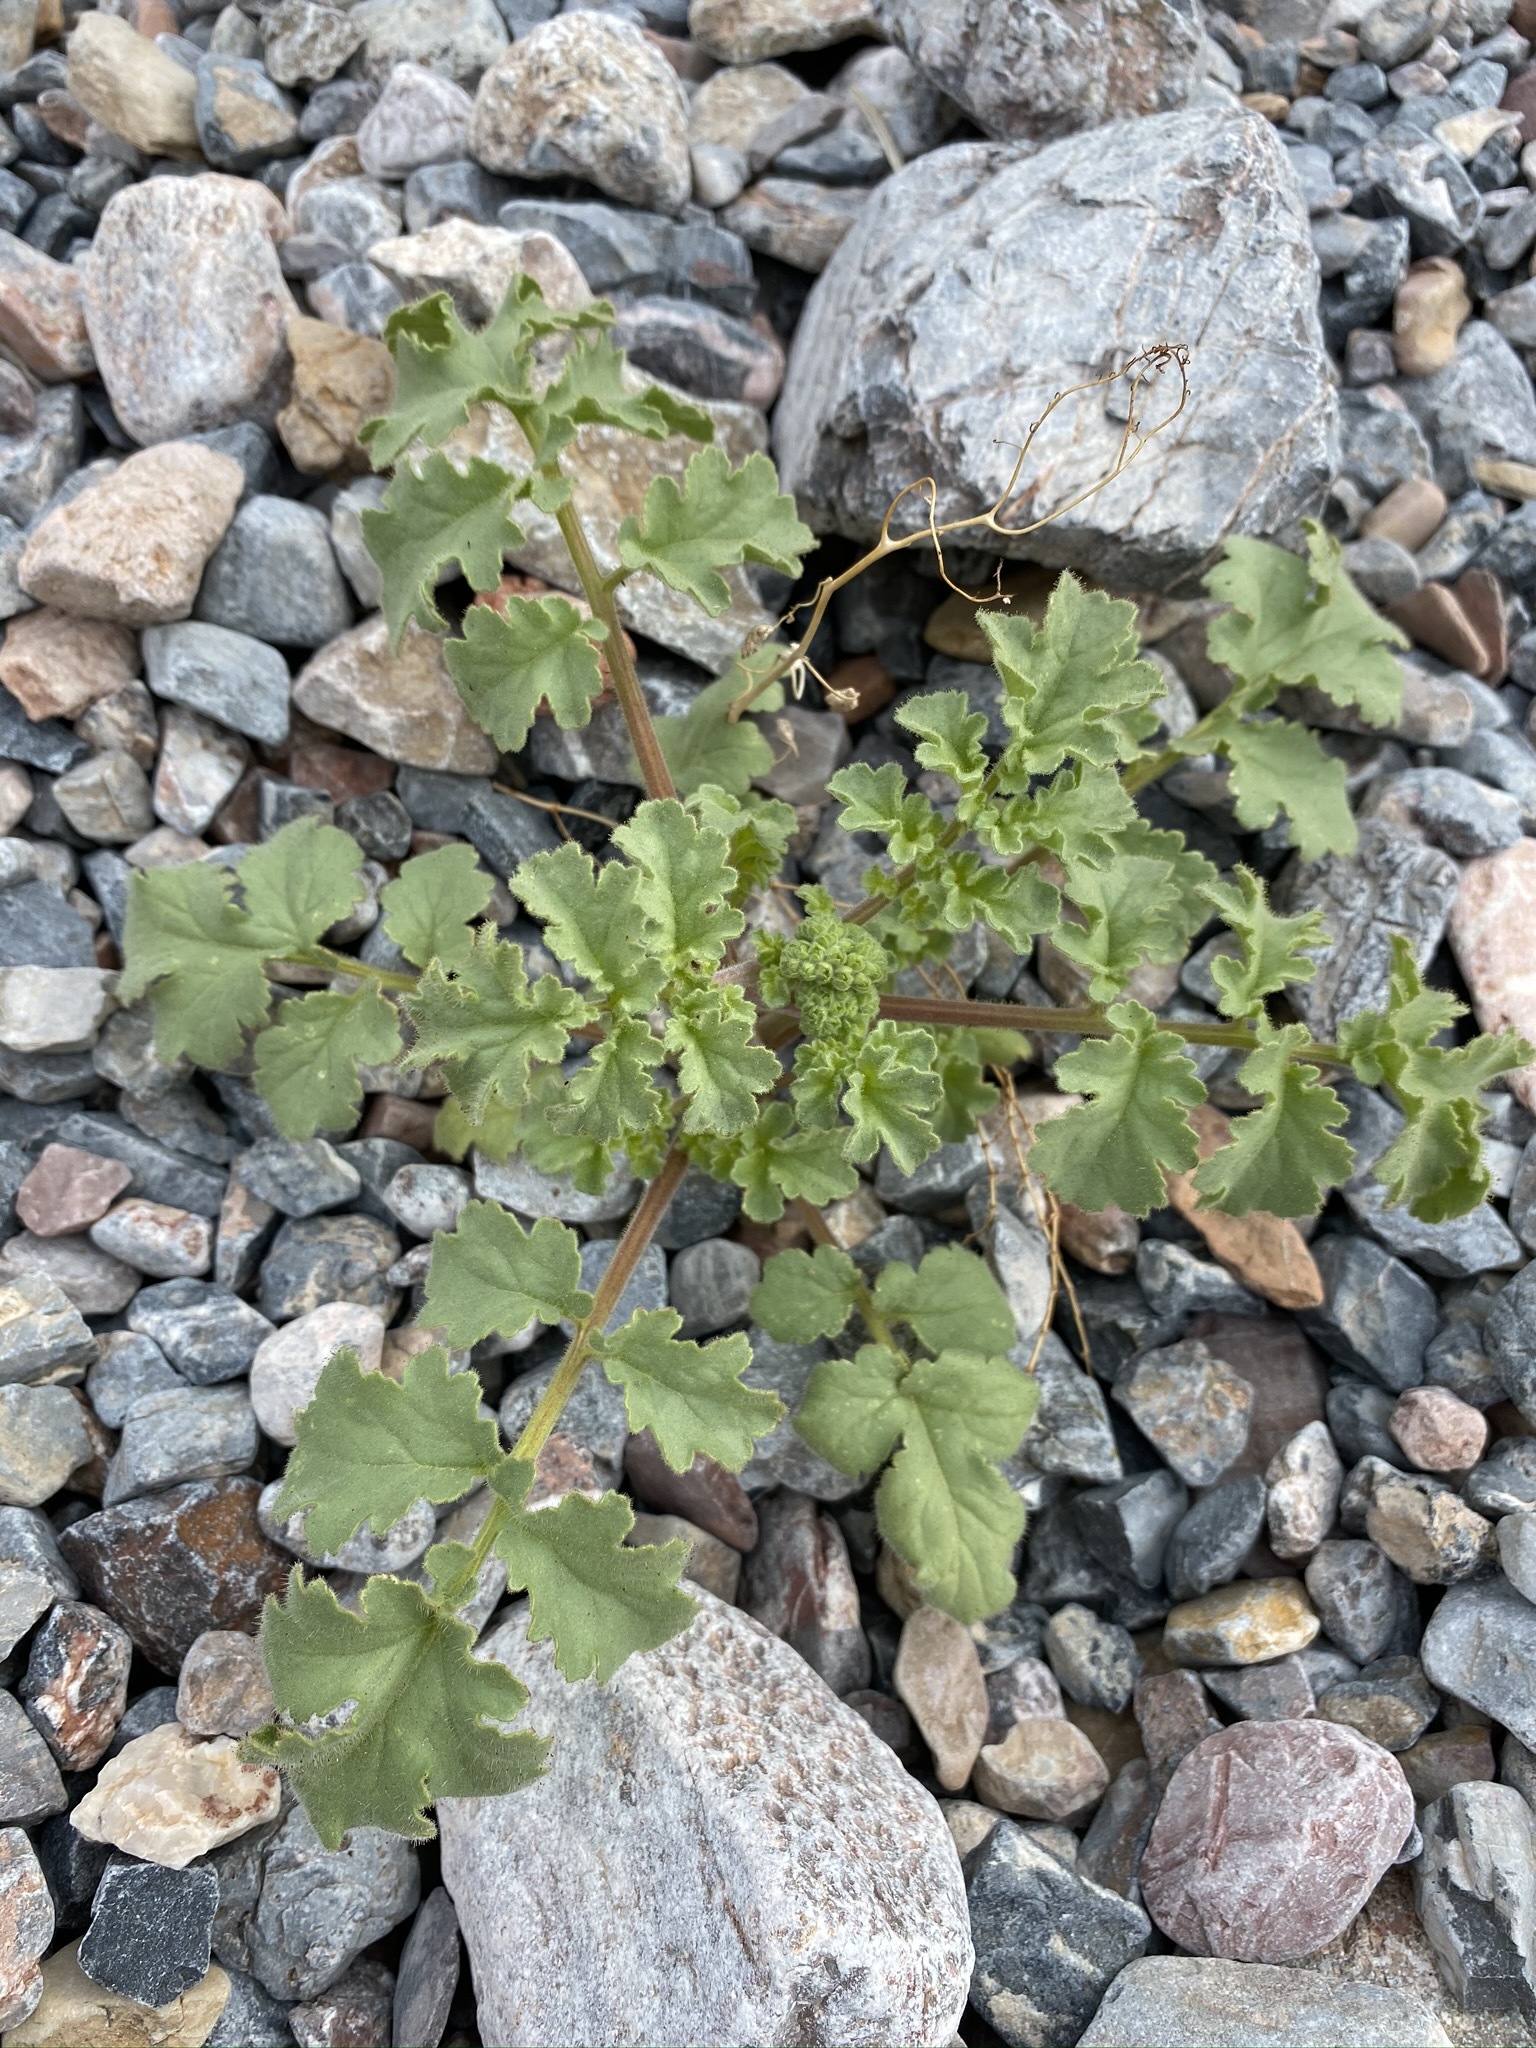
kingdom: Plantae
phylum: Tracheophyta
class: Magnoliopsida
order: Boraginales
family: Hydrophyllaceae
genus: Phacelia
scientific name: Phacelia pedicellata
